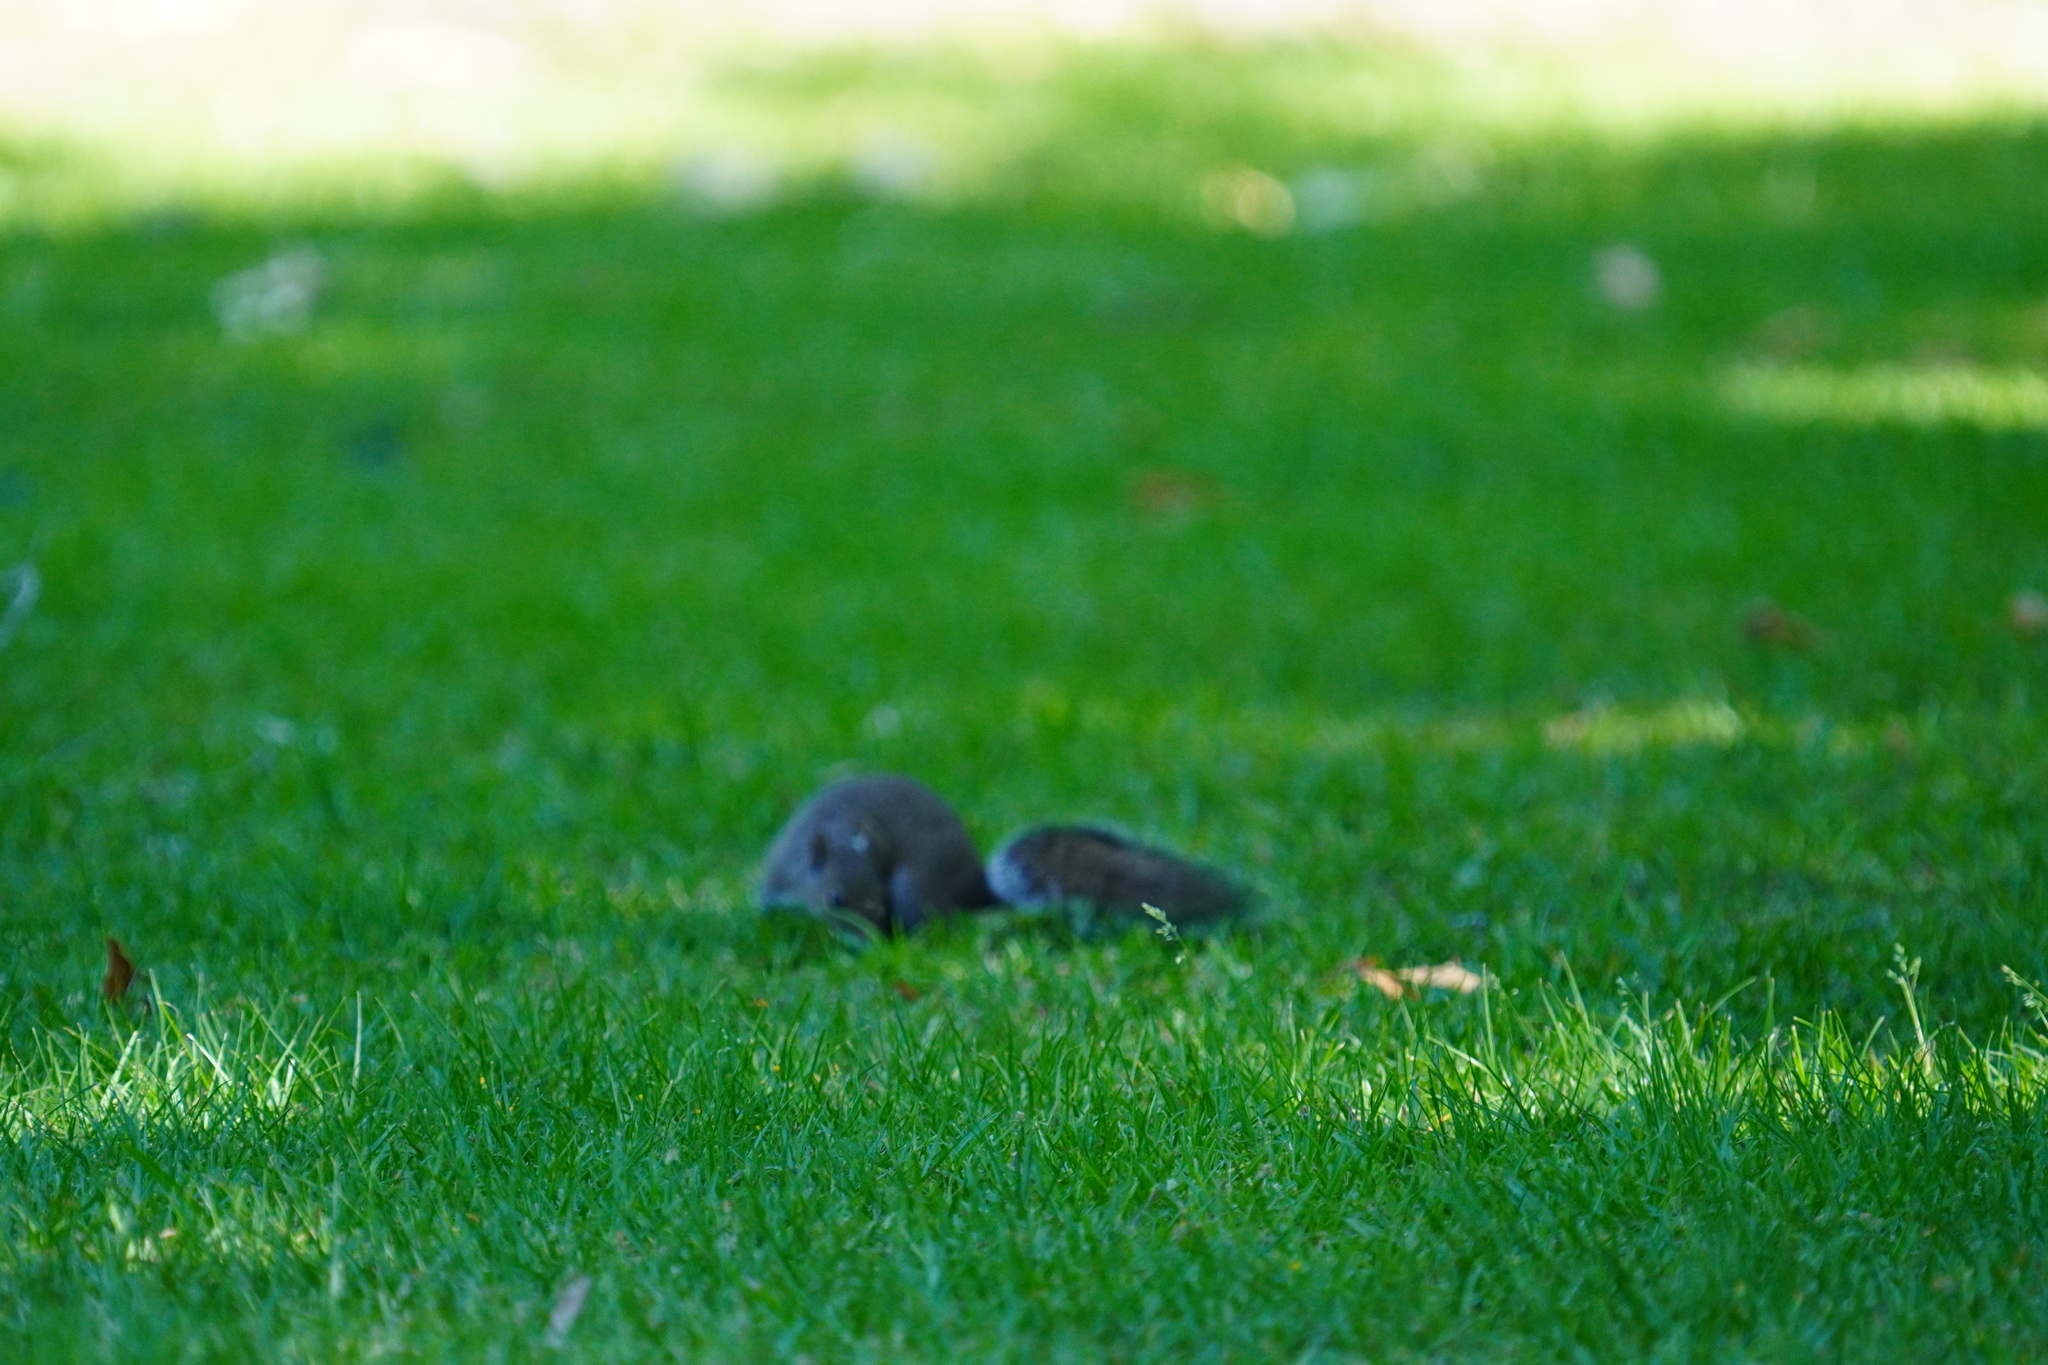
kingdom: Animalia
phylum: Chordata
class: Mammalia
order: Rodentia
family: Sciuridae
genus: Sciurus
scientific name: Sciurus carolinensis
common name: Eastern gray squirrel
